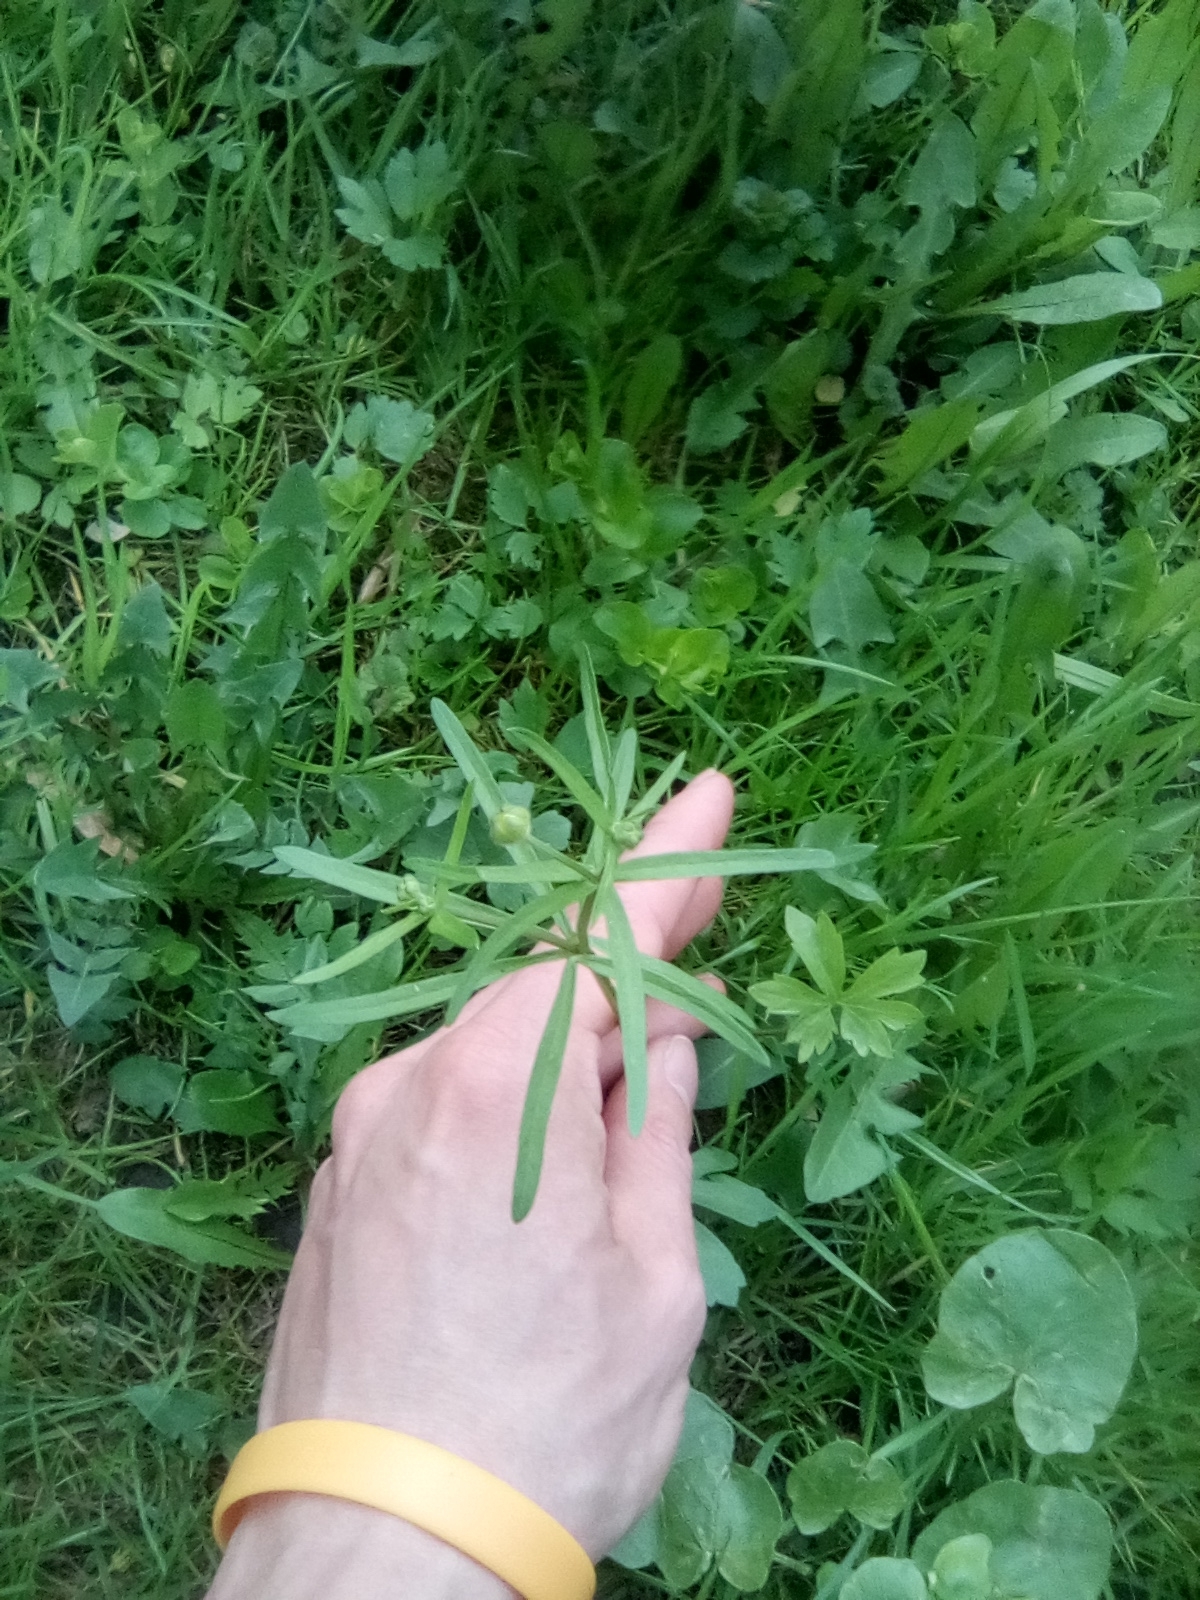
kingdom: Plantae
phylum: Tracheophyta
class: Magnoliopsida
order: Ranunculales
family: Ranunculaceae
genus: Ranunculus
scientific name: Ranunculus auricomus
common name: Goldilocks buttercup
